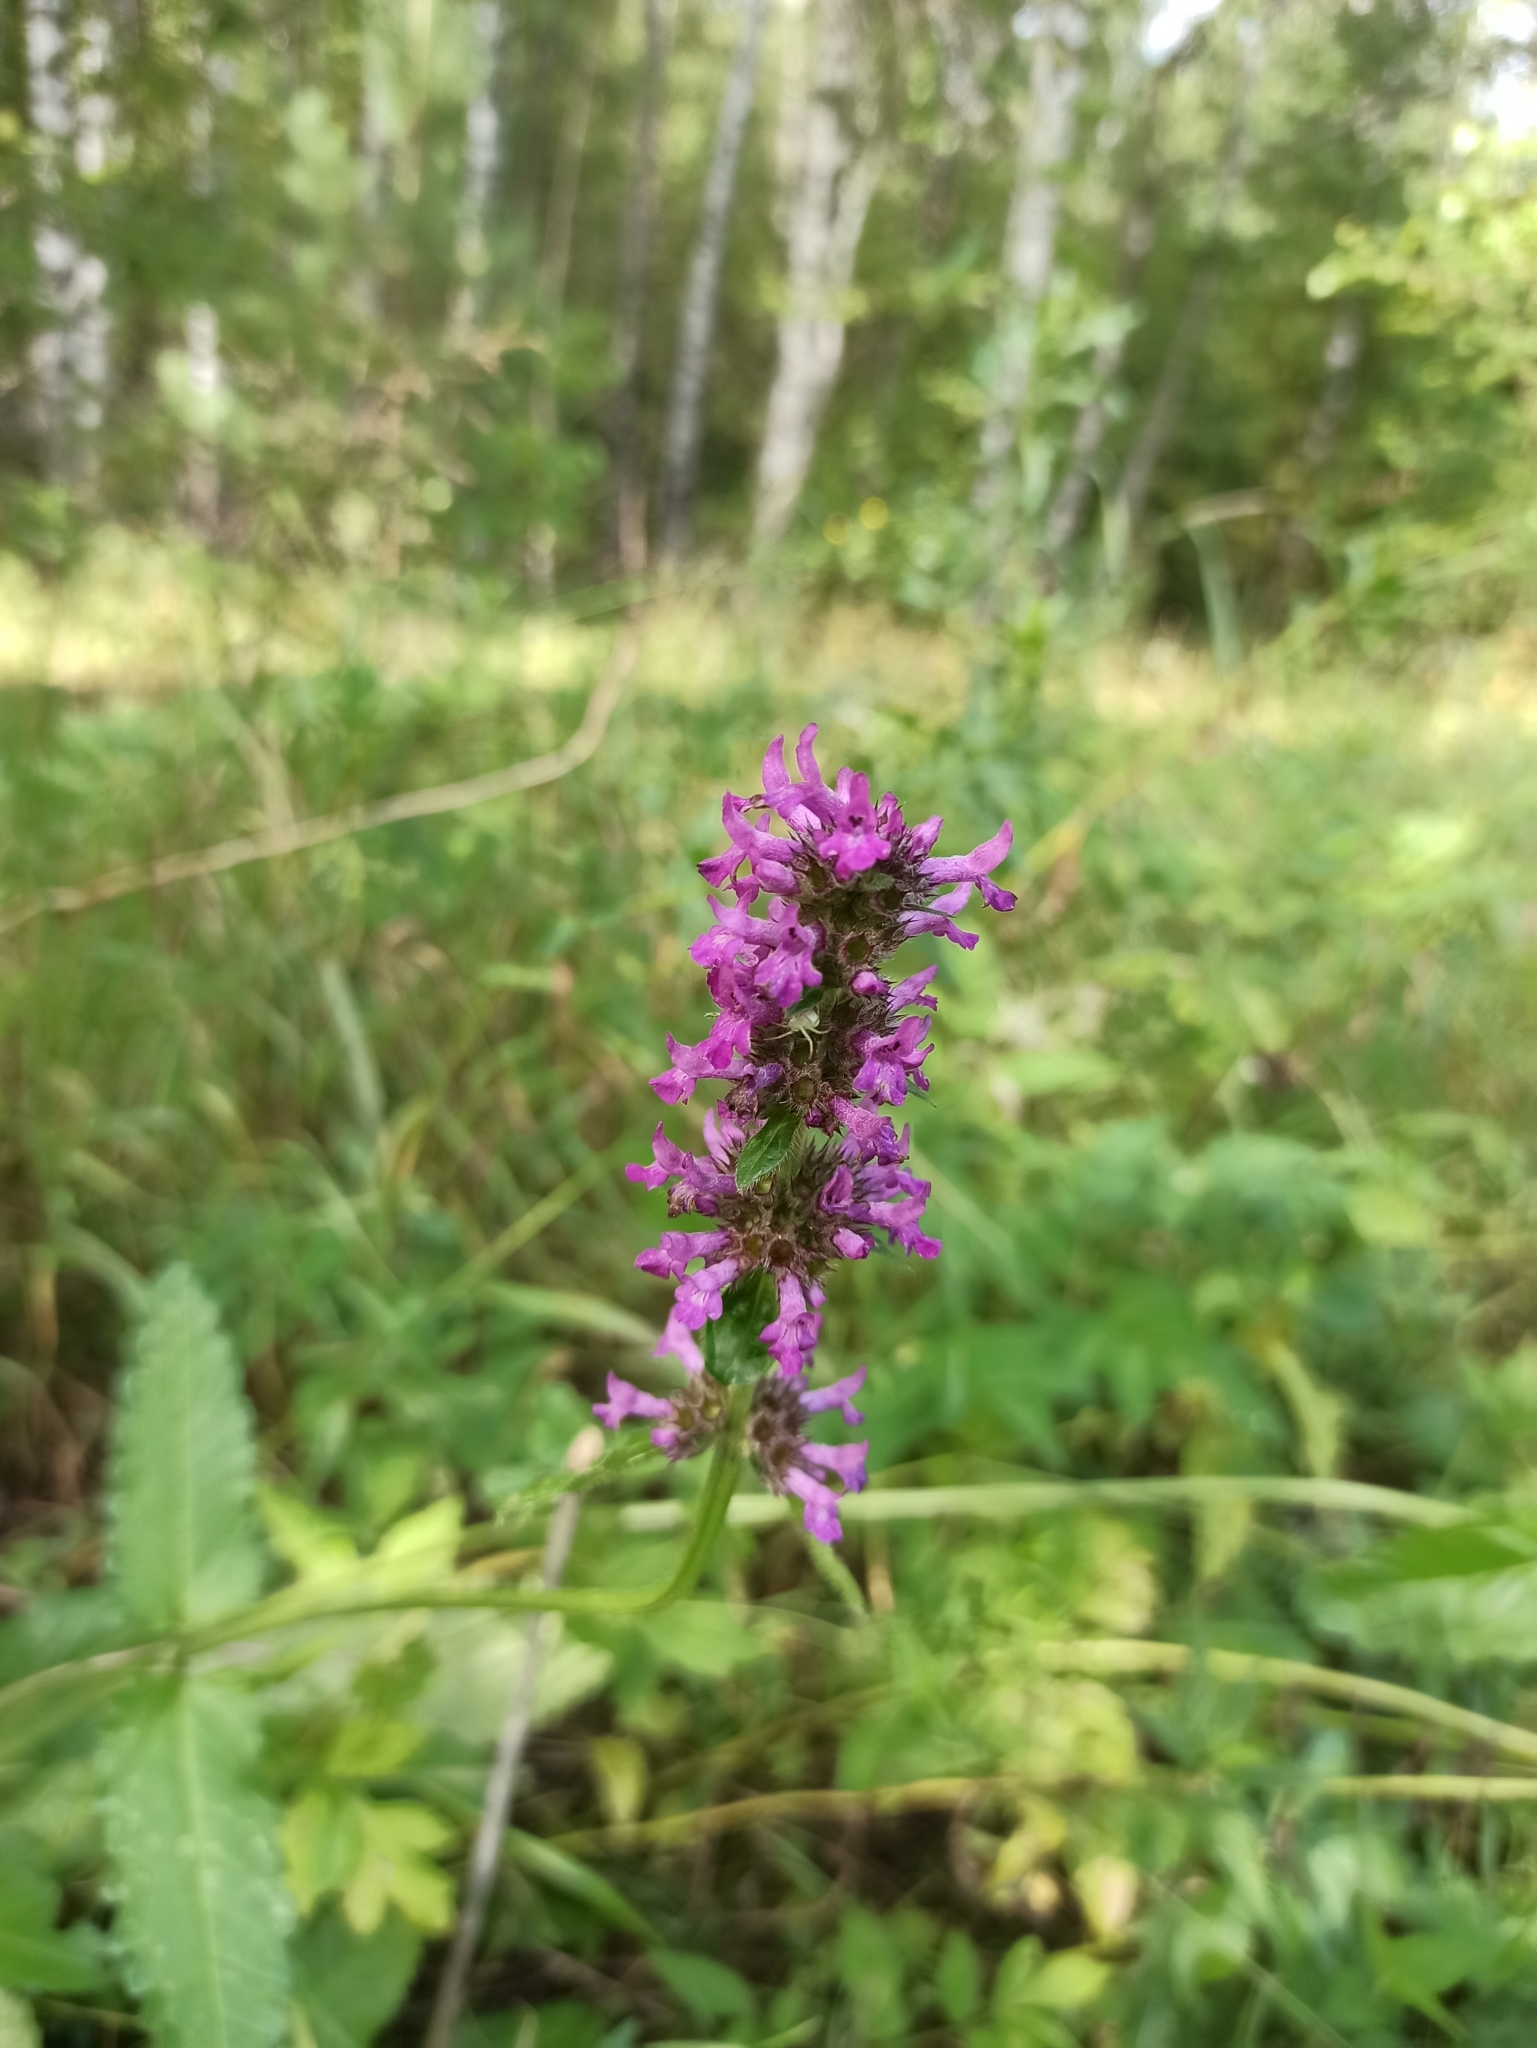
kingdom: Plantae
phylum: Tracheophyta
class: Magnoliopsida
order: Lamiales
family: Lamiaceae
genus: Betonica
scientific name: Betonica officinalis
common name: Bishop's-wort
